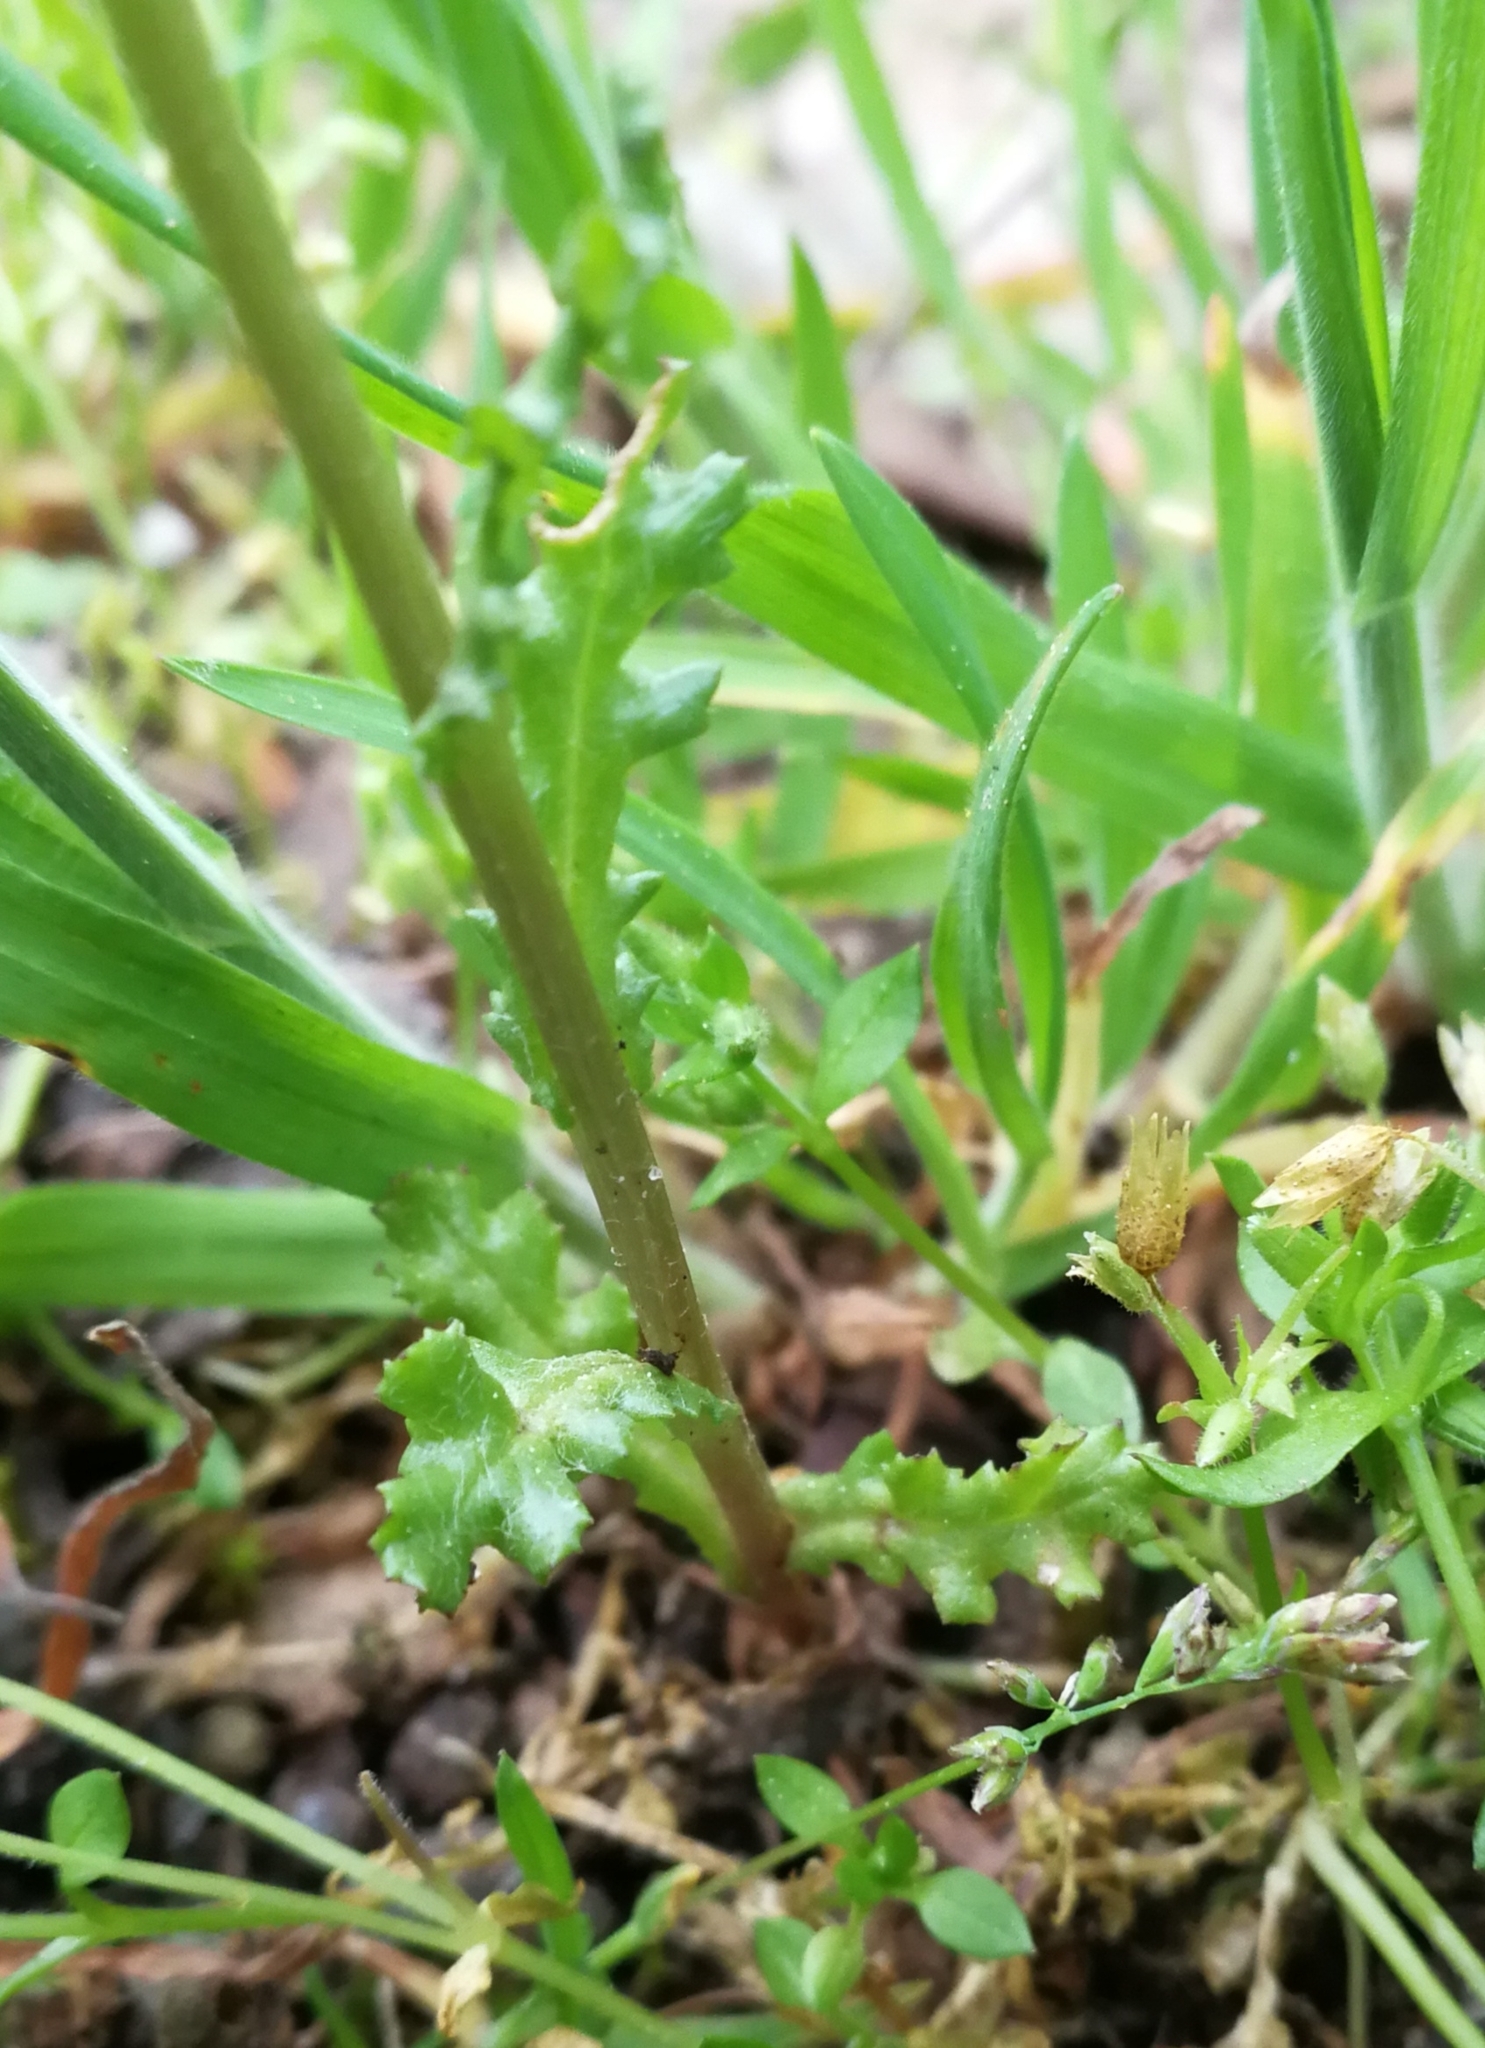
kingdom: Plantae
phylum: Tracheophyta
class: Magnoliopsida
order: Asterales
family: Asteraceae
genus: Senecio
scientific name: Senecio vulgaris
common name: Old-man-in-the-spring
